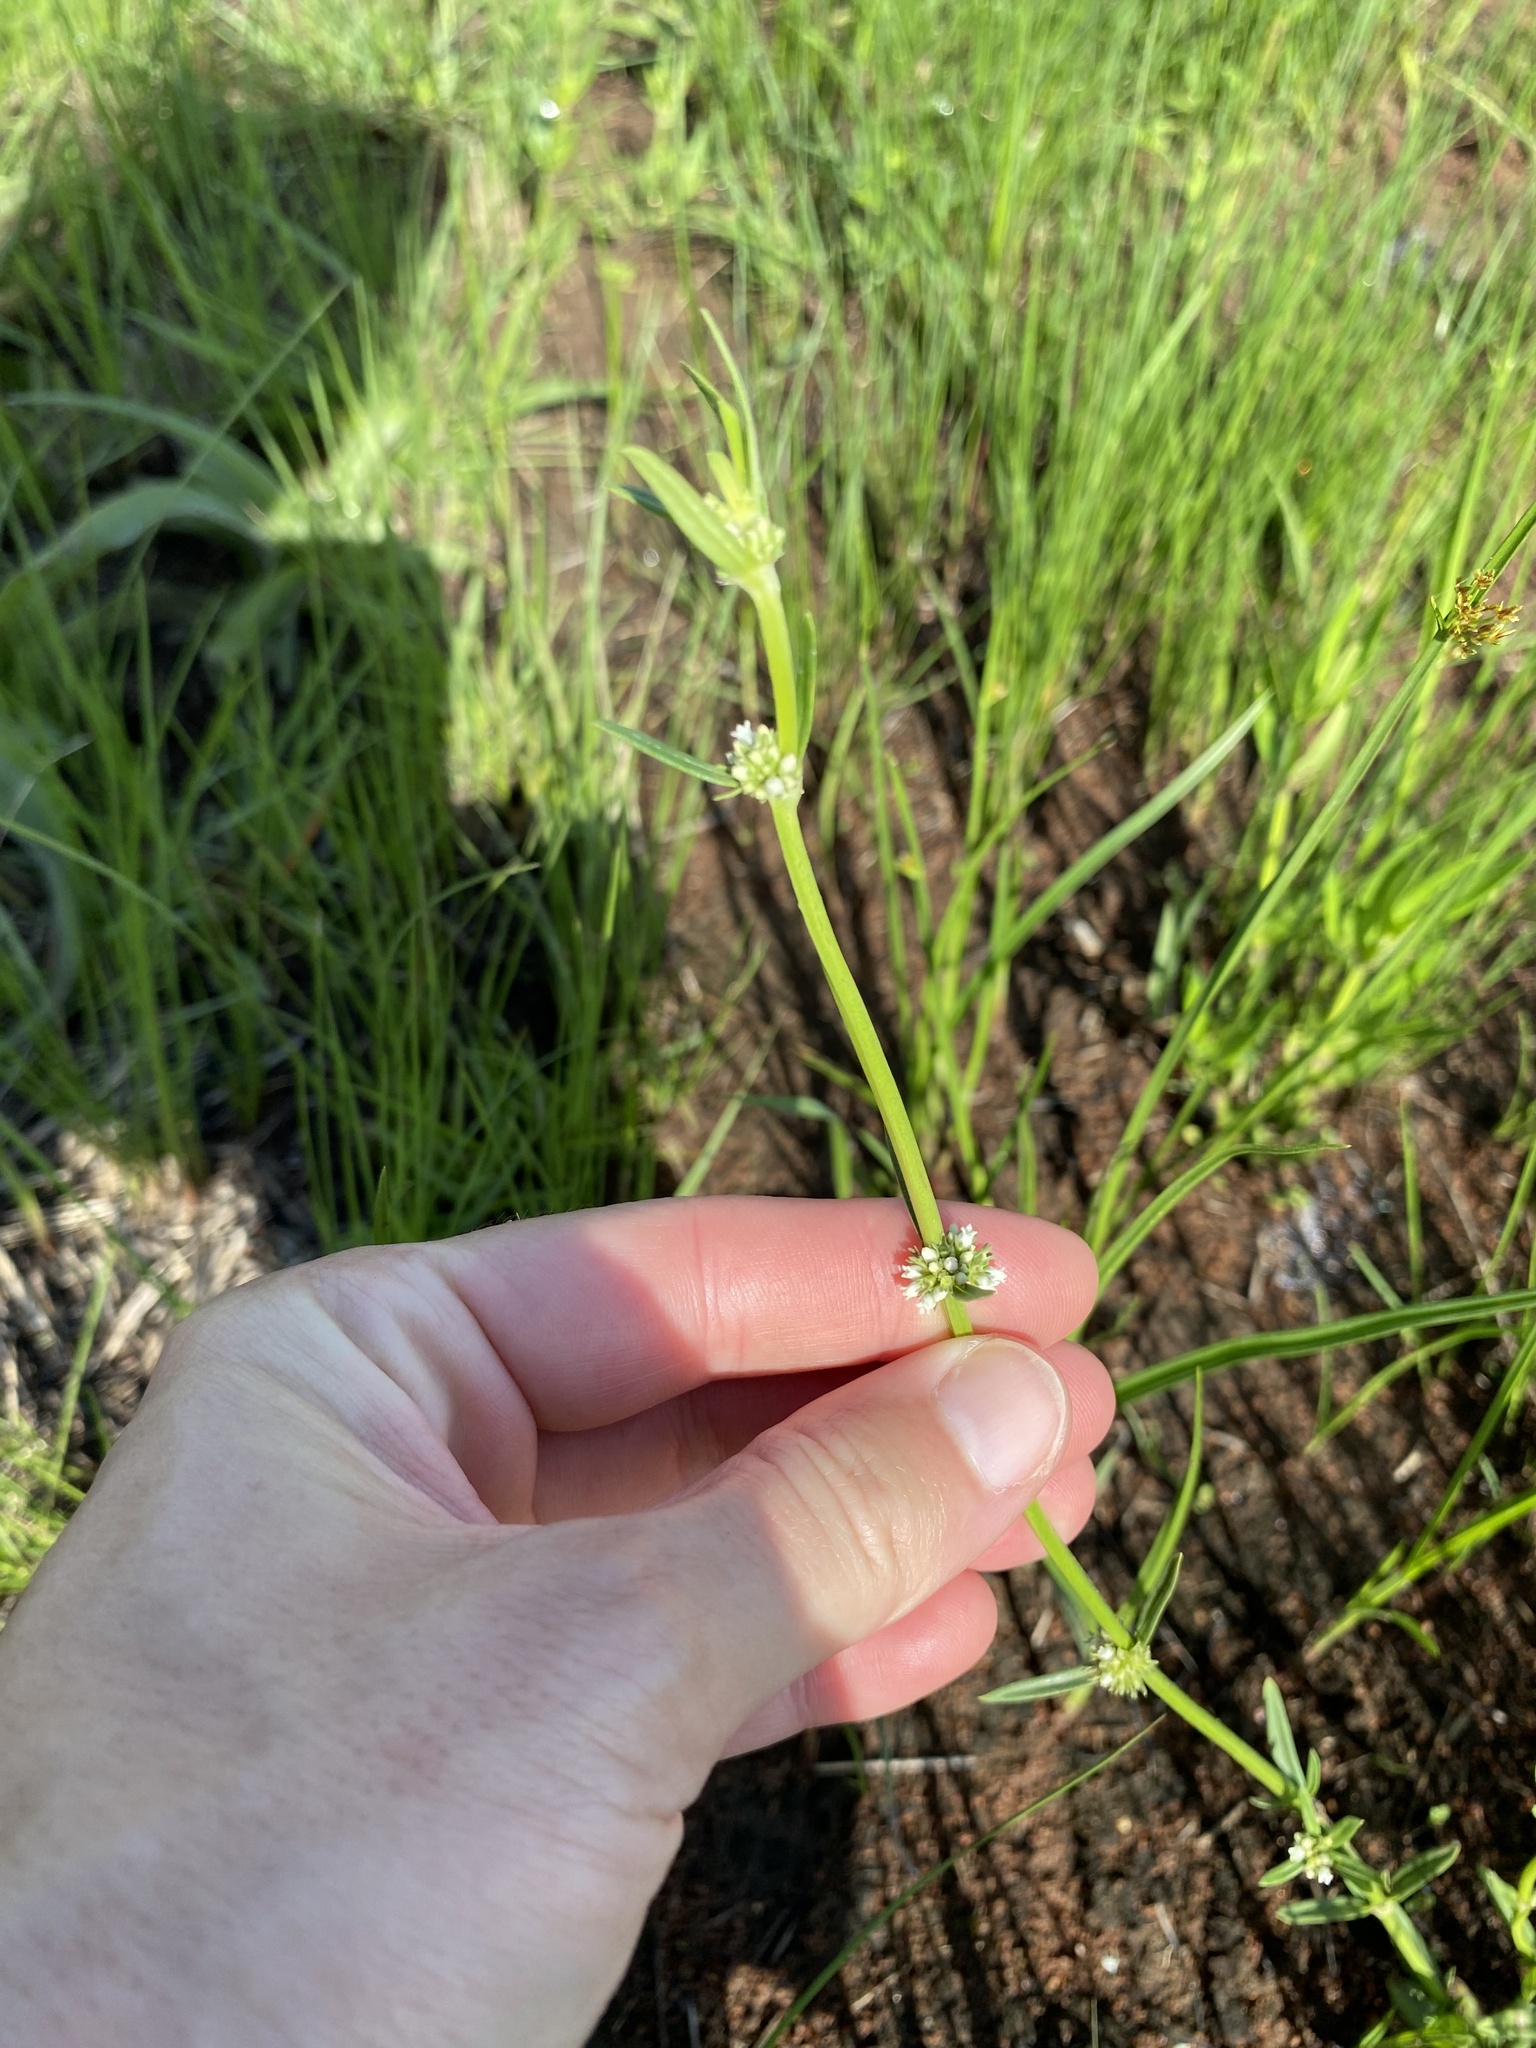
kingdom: Plantae
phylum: Tracheophyta
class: Magnoliopsida
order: Gentianales
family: Rubiaceae
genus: Spermacoce
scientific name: Spermacoce natalensis
